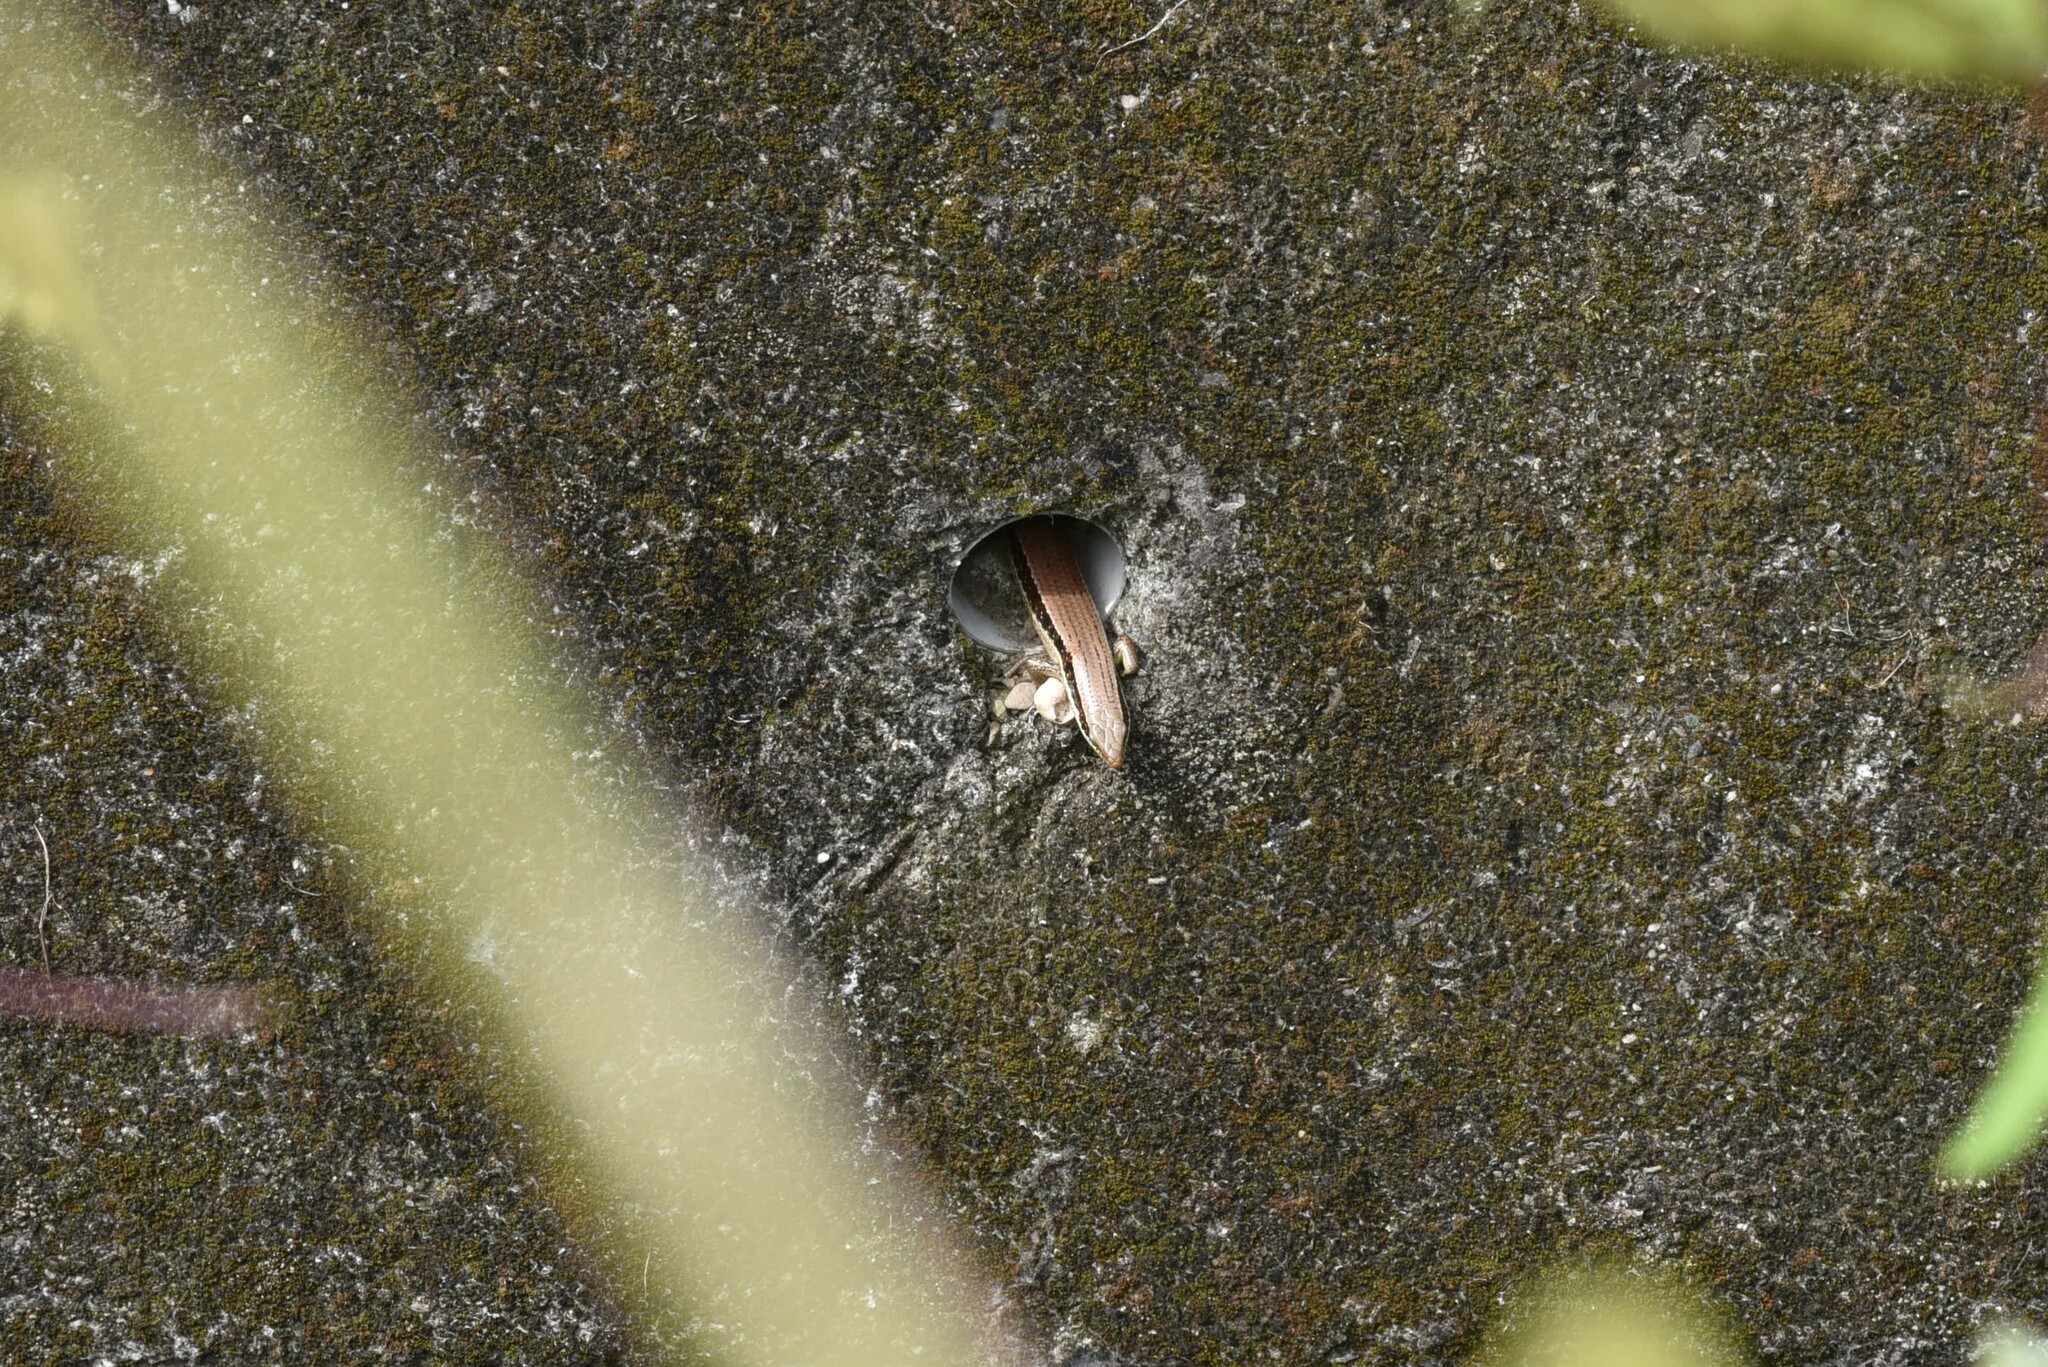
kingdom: Animalia
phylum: Chordata
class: Squamata
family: Scincidae
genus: Eutropis
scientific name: Eutropis longicaudata
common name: Long-tailed sun skink
